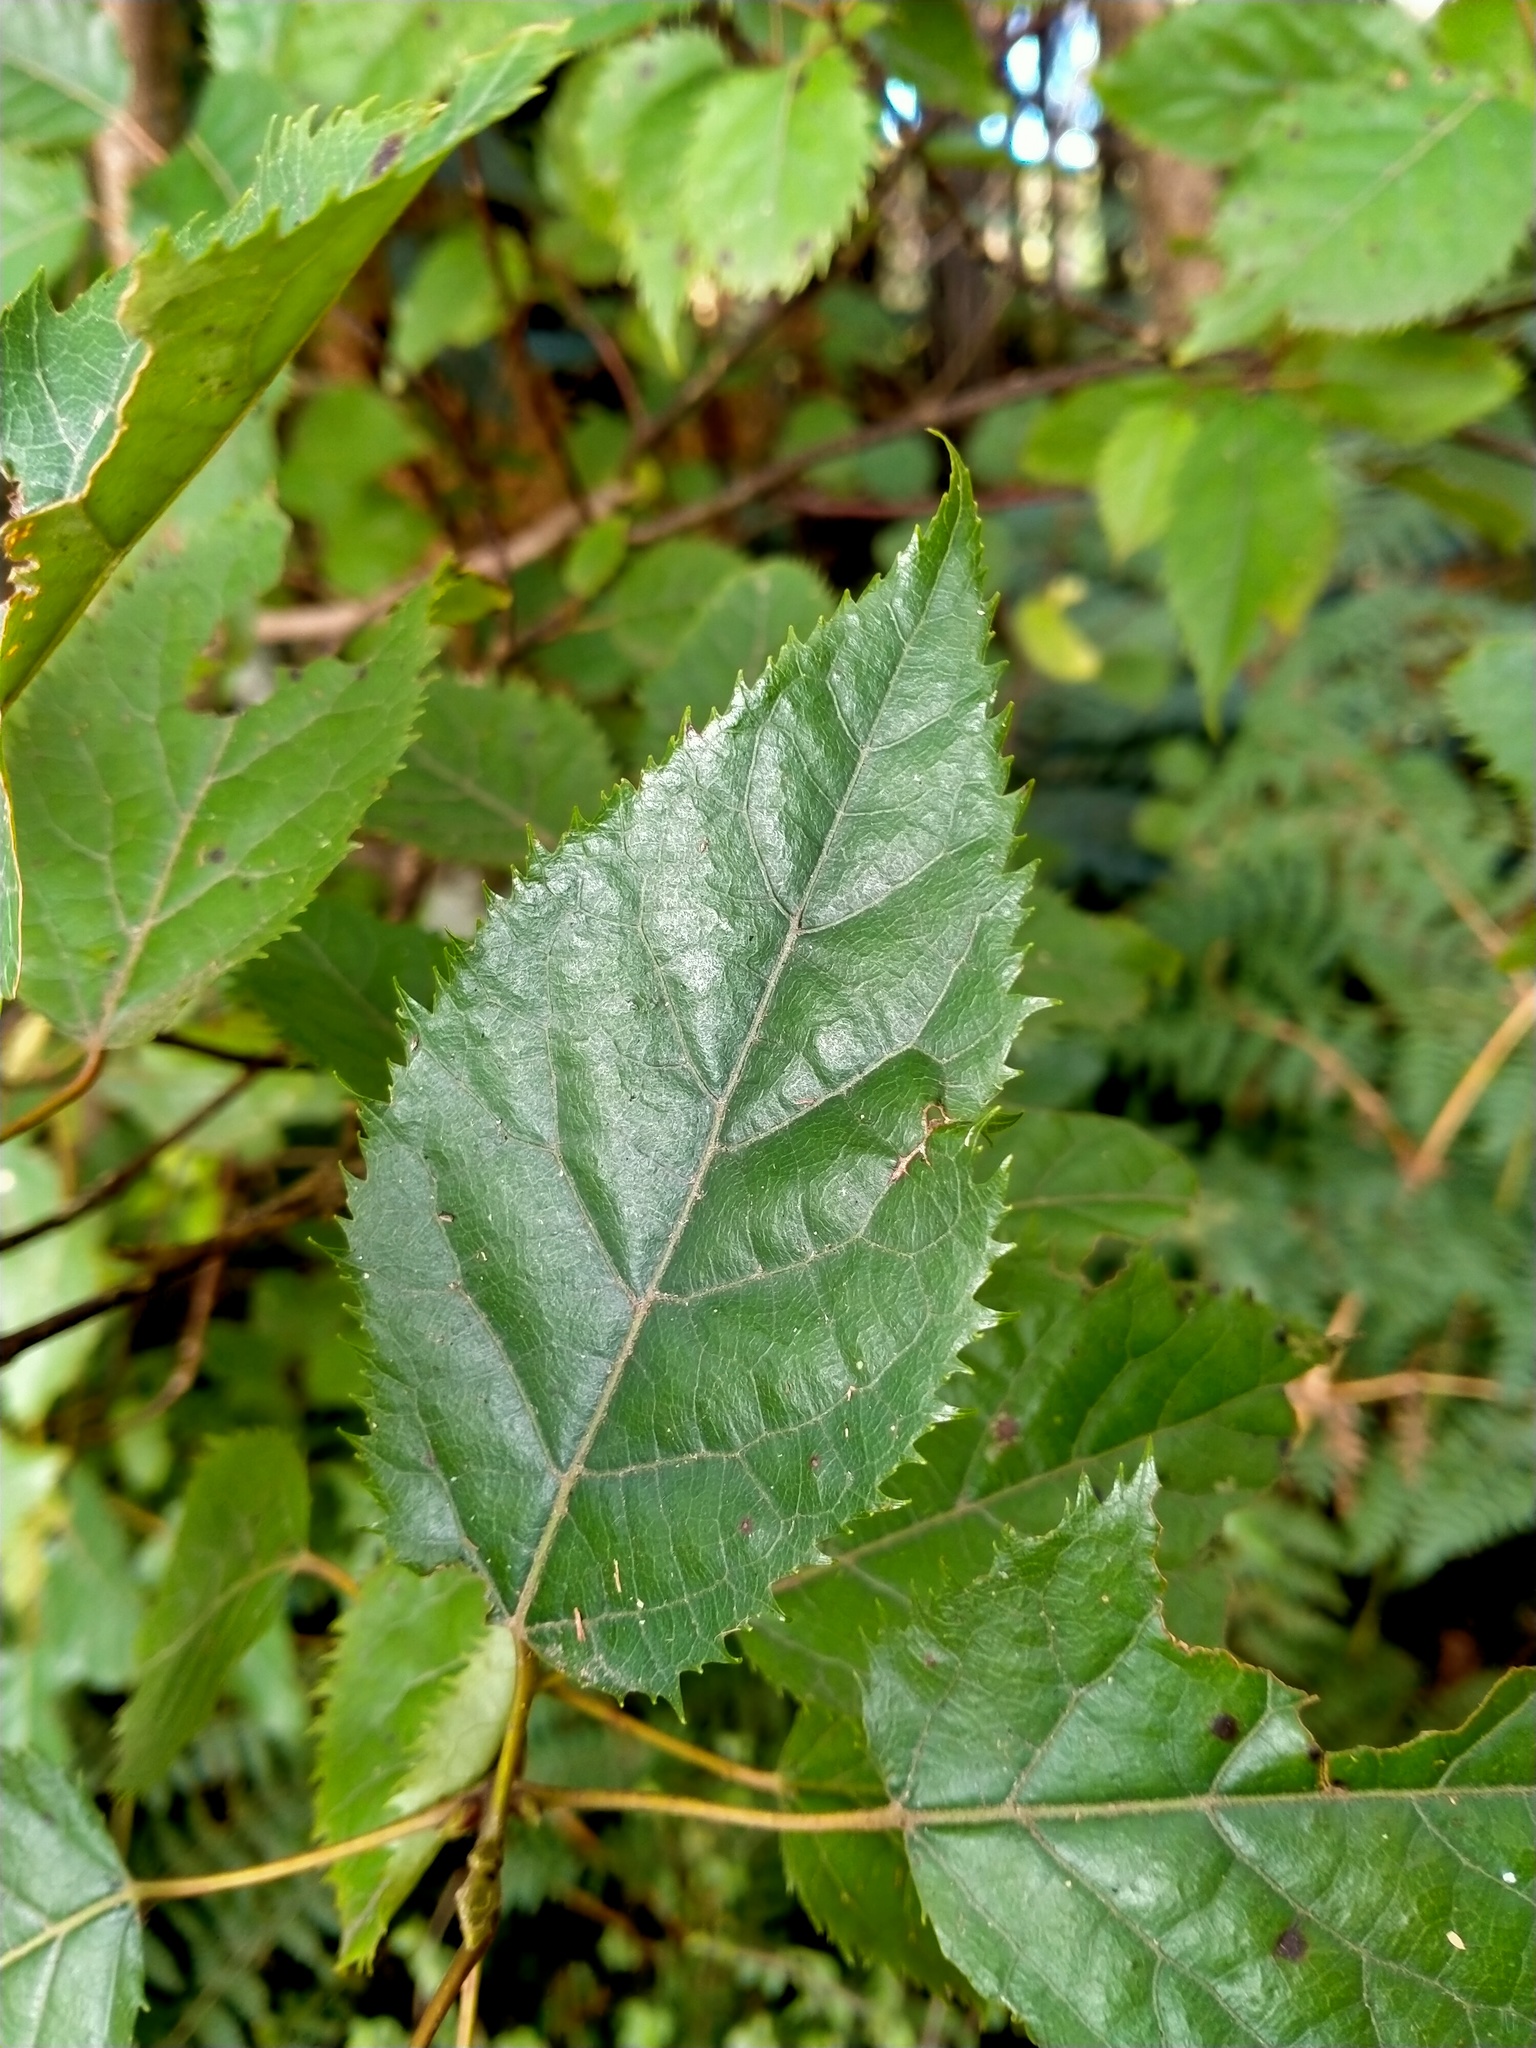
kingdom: Plantae
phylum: Tracheophyta
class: Magnoliopsida
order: Oxalidales
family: Elaeocarpaceae
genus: Aristotelia
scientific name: Aristotelia serrata
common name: New zealand wineberry
